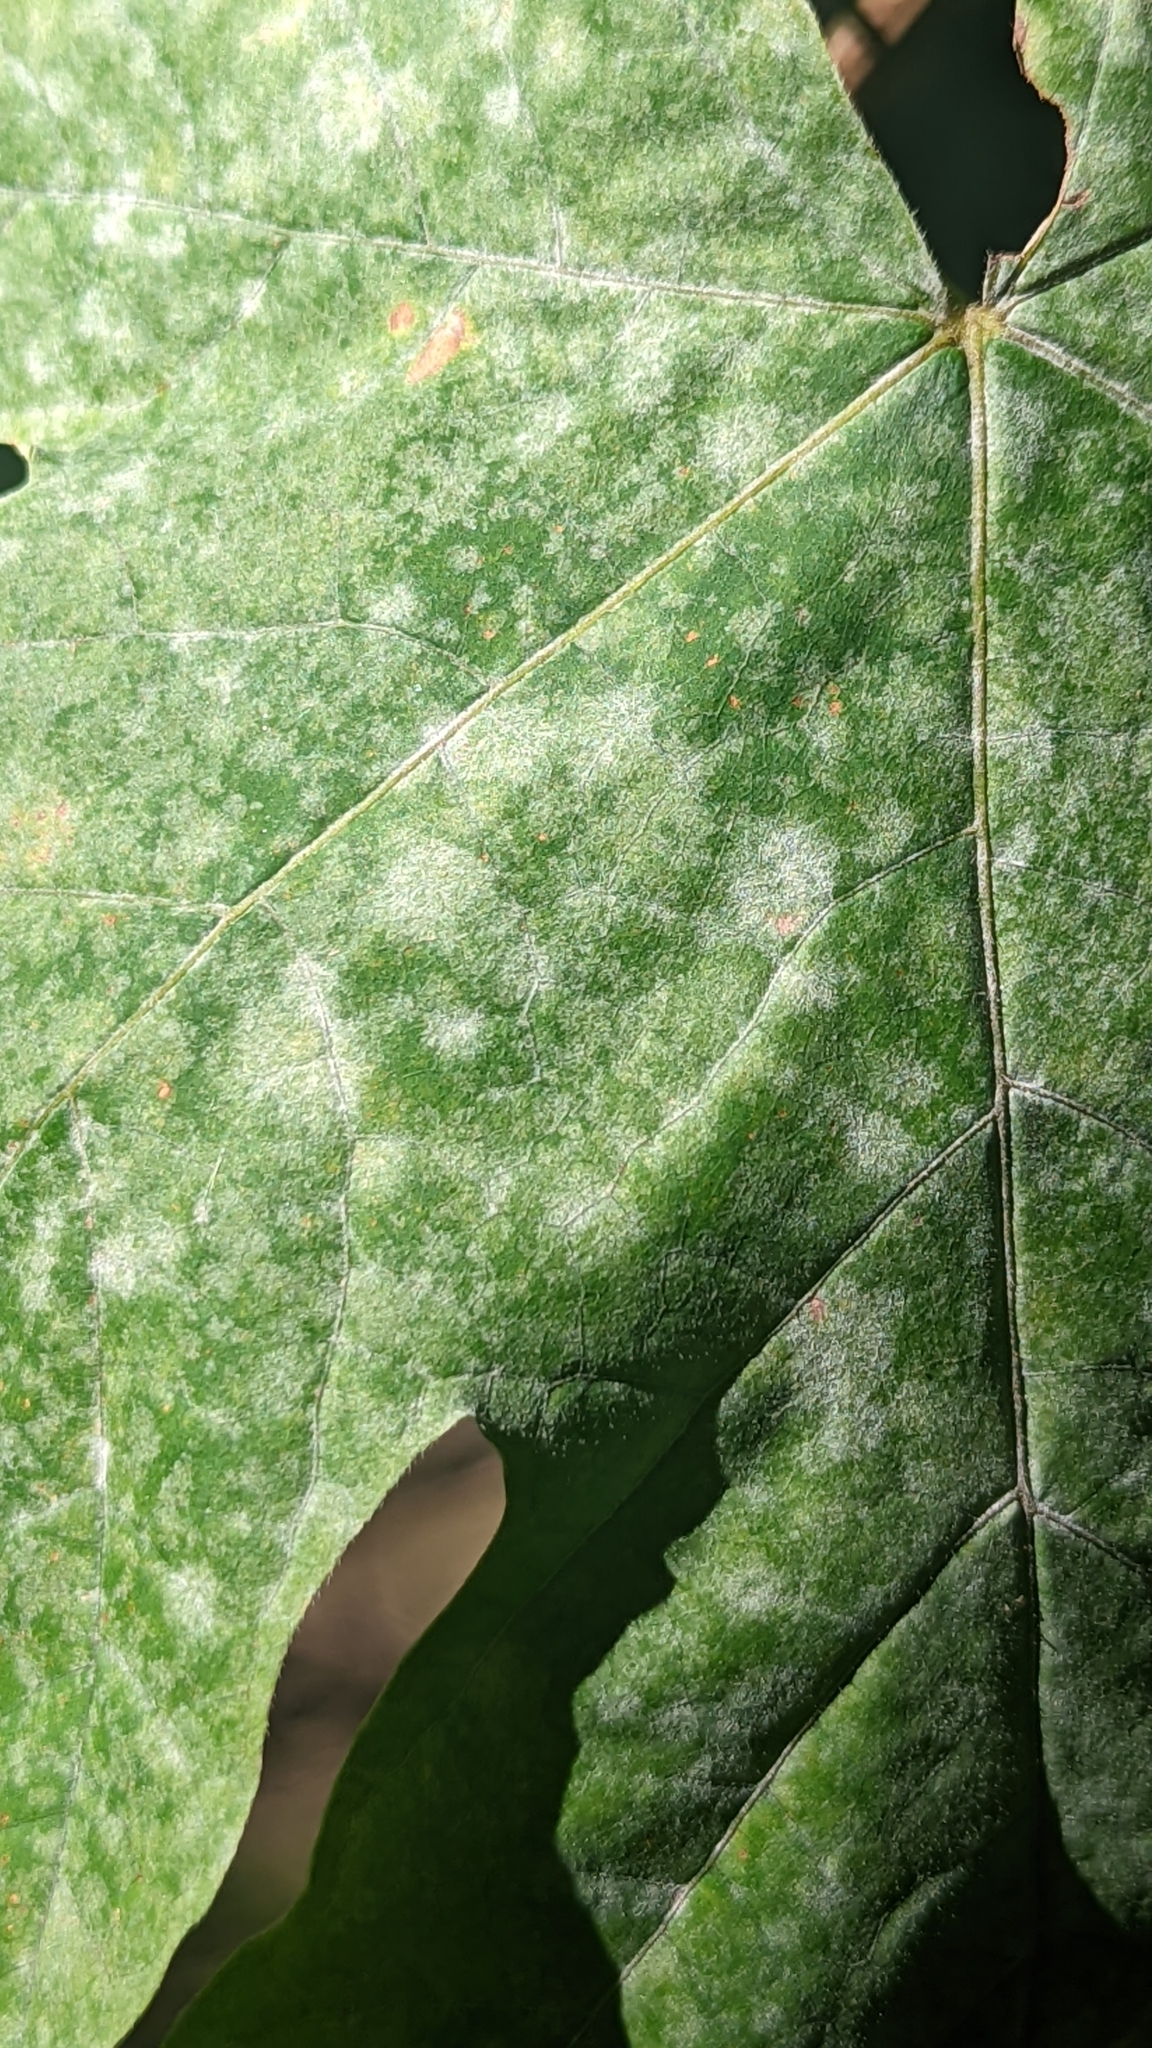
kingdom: Fungi
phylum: Ascomycota
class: Leotiomycetes
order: Helotiales
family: Erysiphaceae
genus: Sawadaea
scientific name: Sawadaea bicornis
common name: Maple mildew
